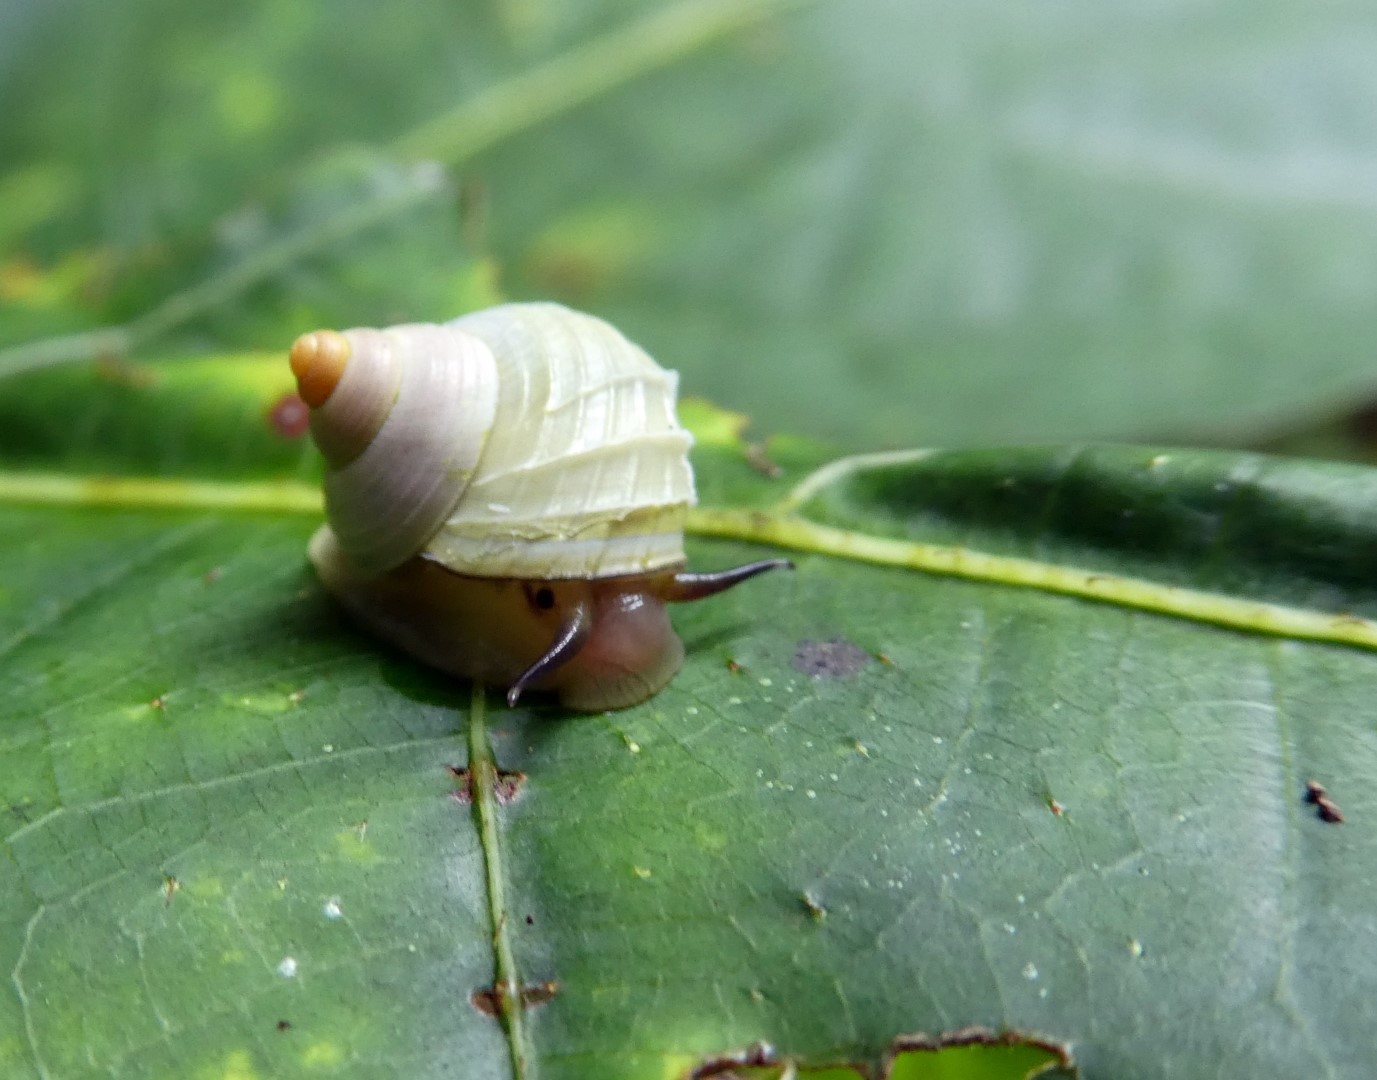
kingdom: Animalia
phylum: Mollusca
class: Gastropoda
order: Architaenioglossa
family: Cyclophoridae
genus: Leptopoma
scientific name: Leptopoma multilabre
